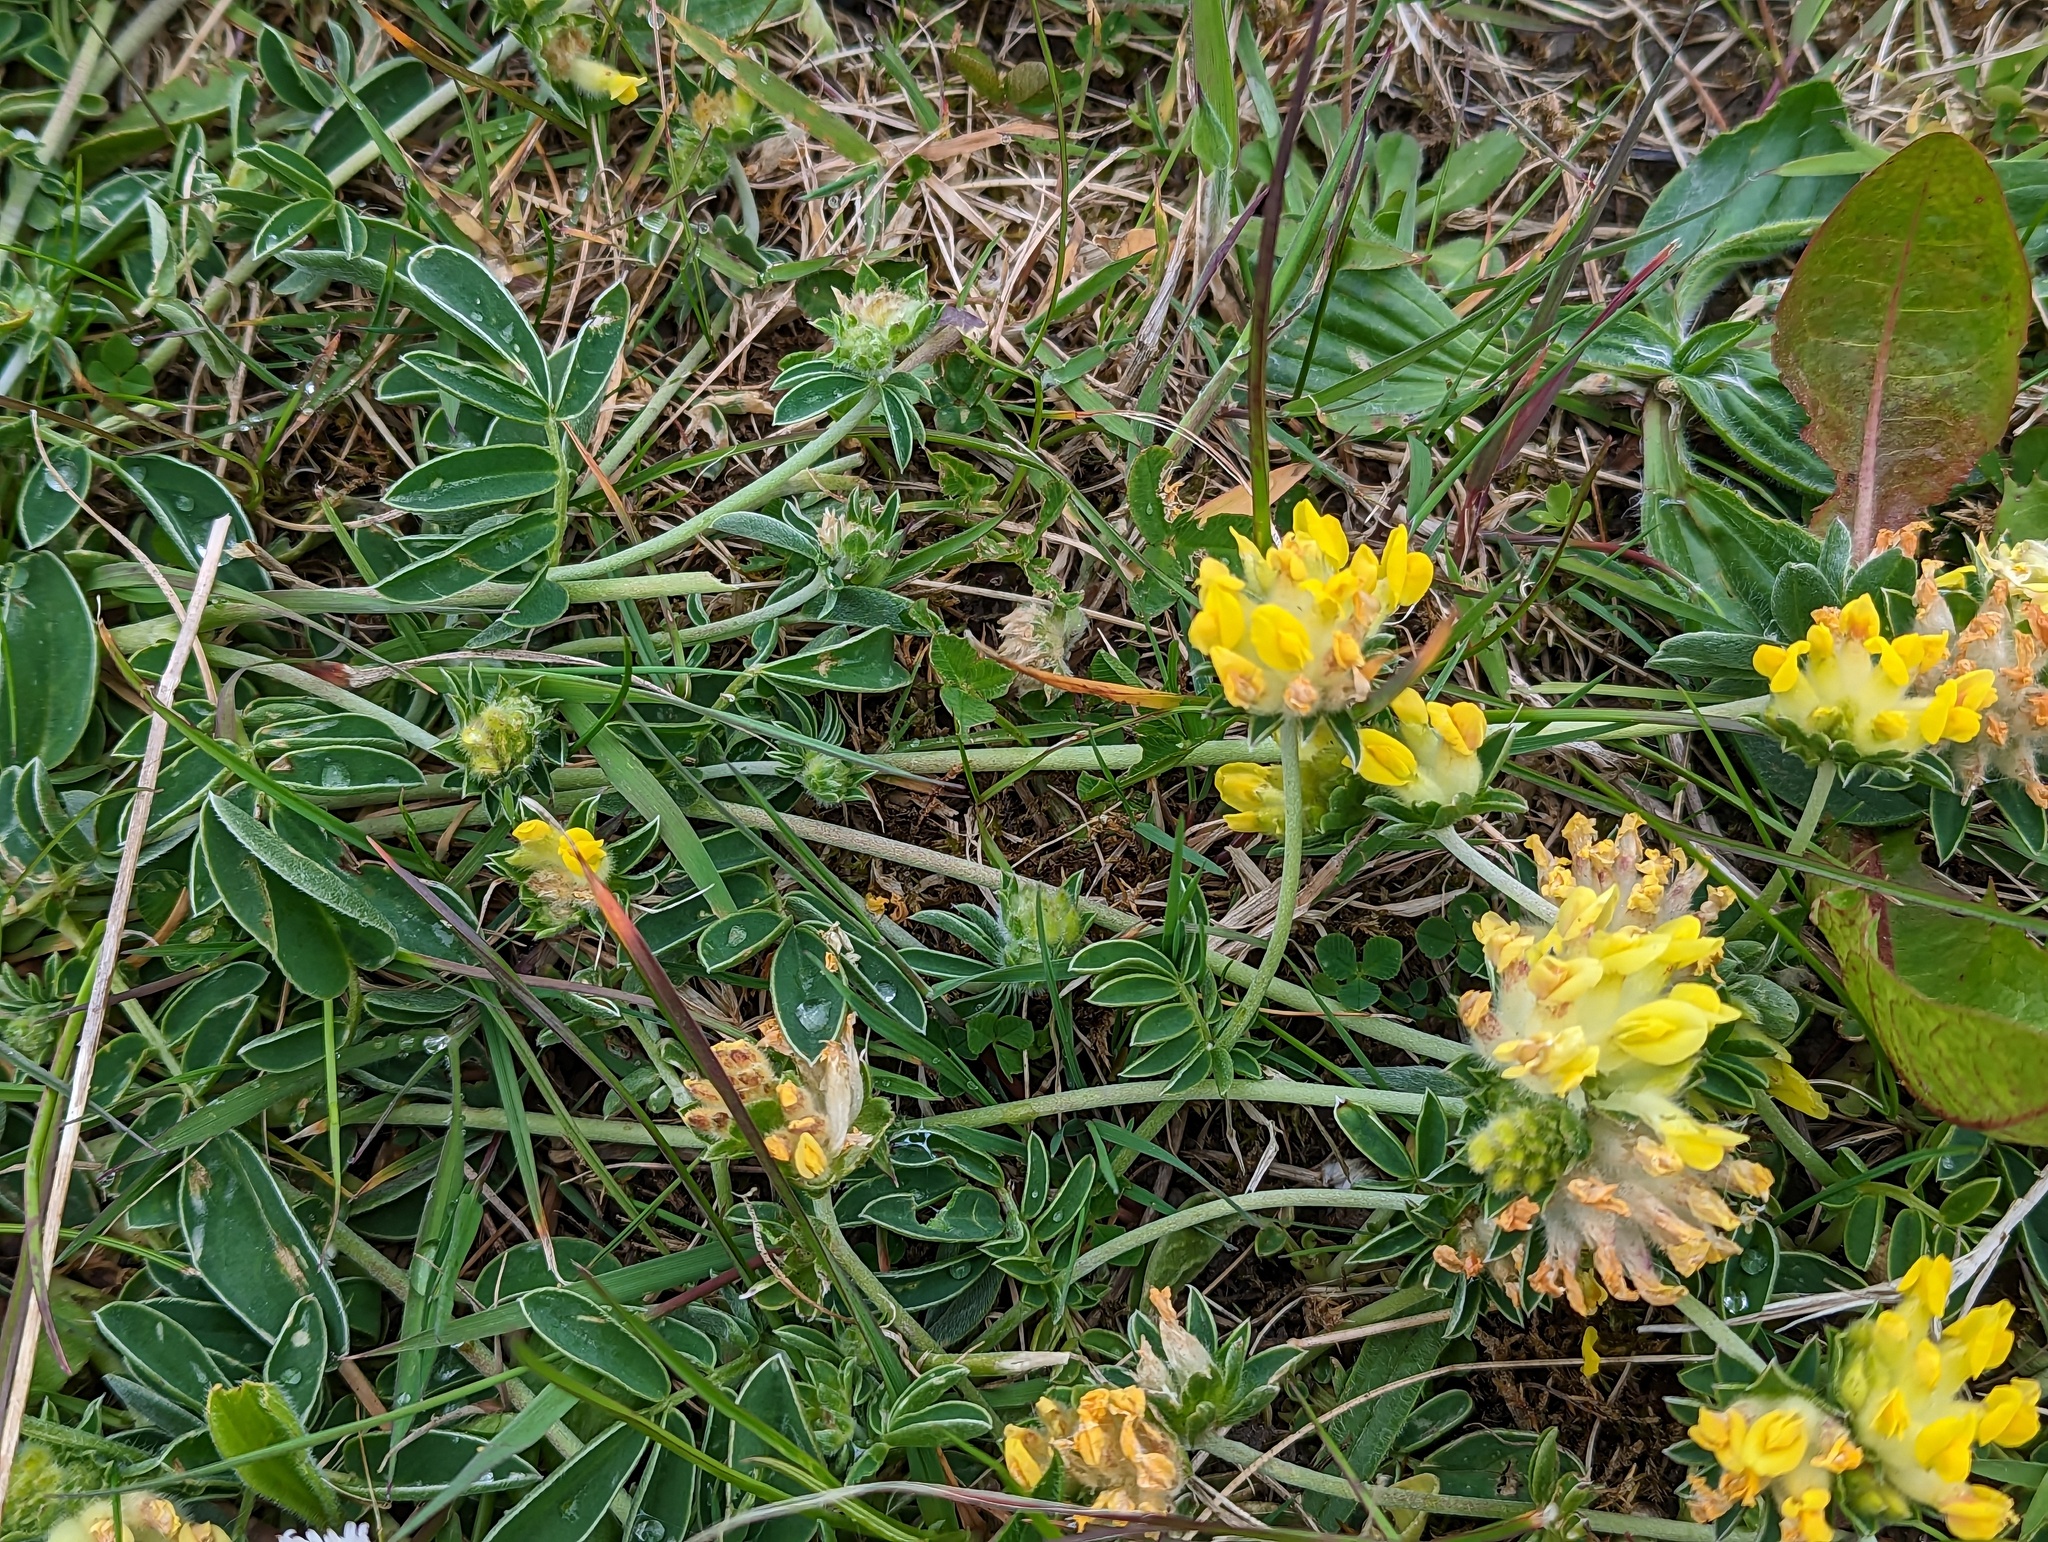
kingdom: Plantae
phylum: Tracheophyta
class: Magnoliopsida
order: Fabales
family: Fabaceae
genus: Anthyllis
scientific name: Anthyllis vulneraria
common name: Kidney vetch
